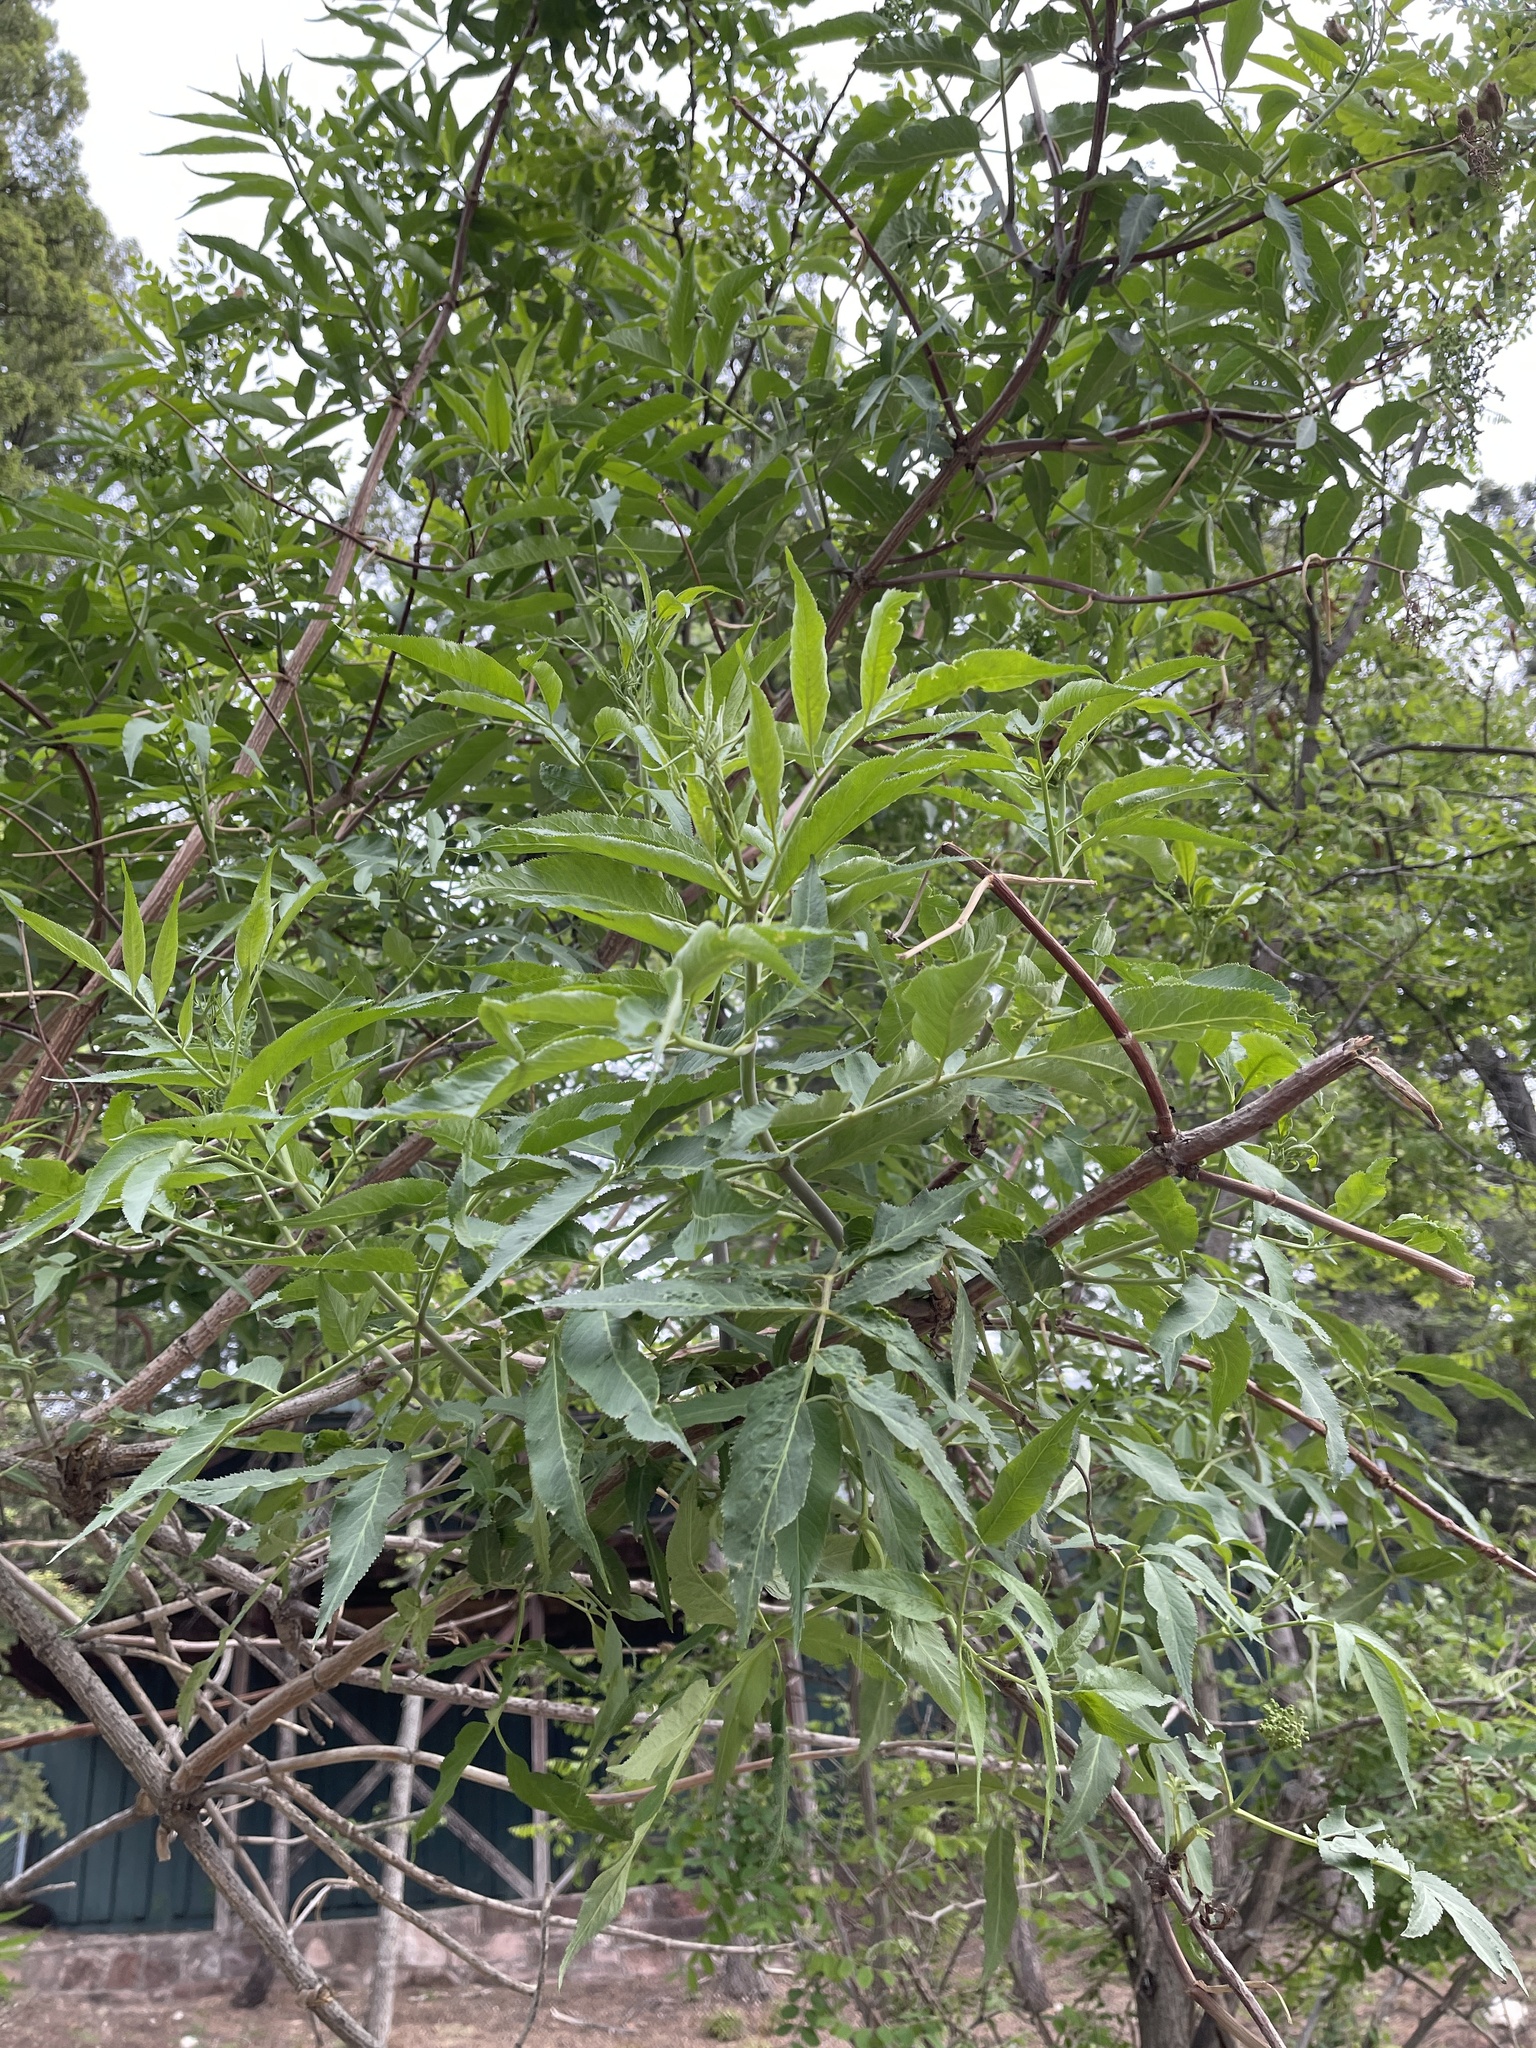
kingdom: Plantae
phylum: Tracheophyta
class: Magnoliopsida
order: Dipsacales
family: Viburnaceae
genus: Sambucus
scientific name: Sambucus cerulea
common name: Blue elder
